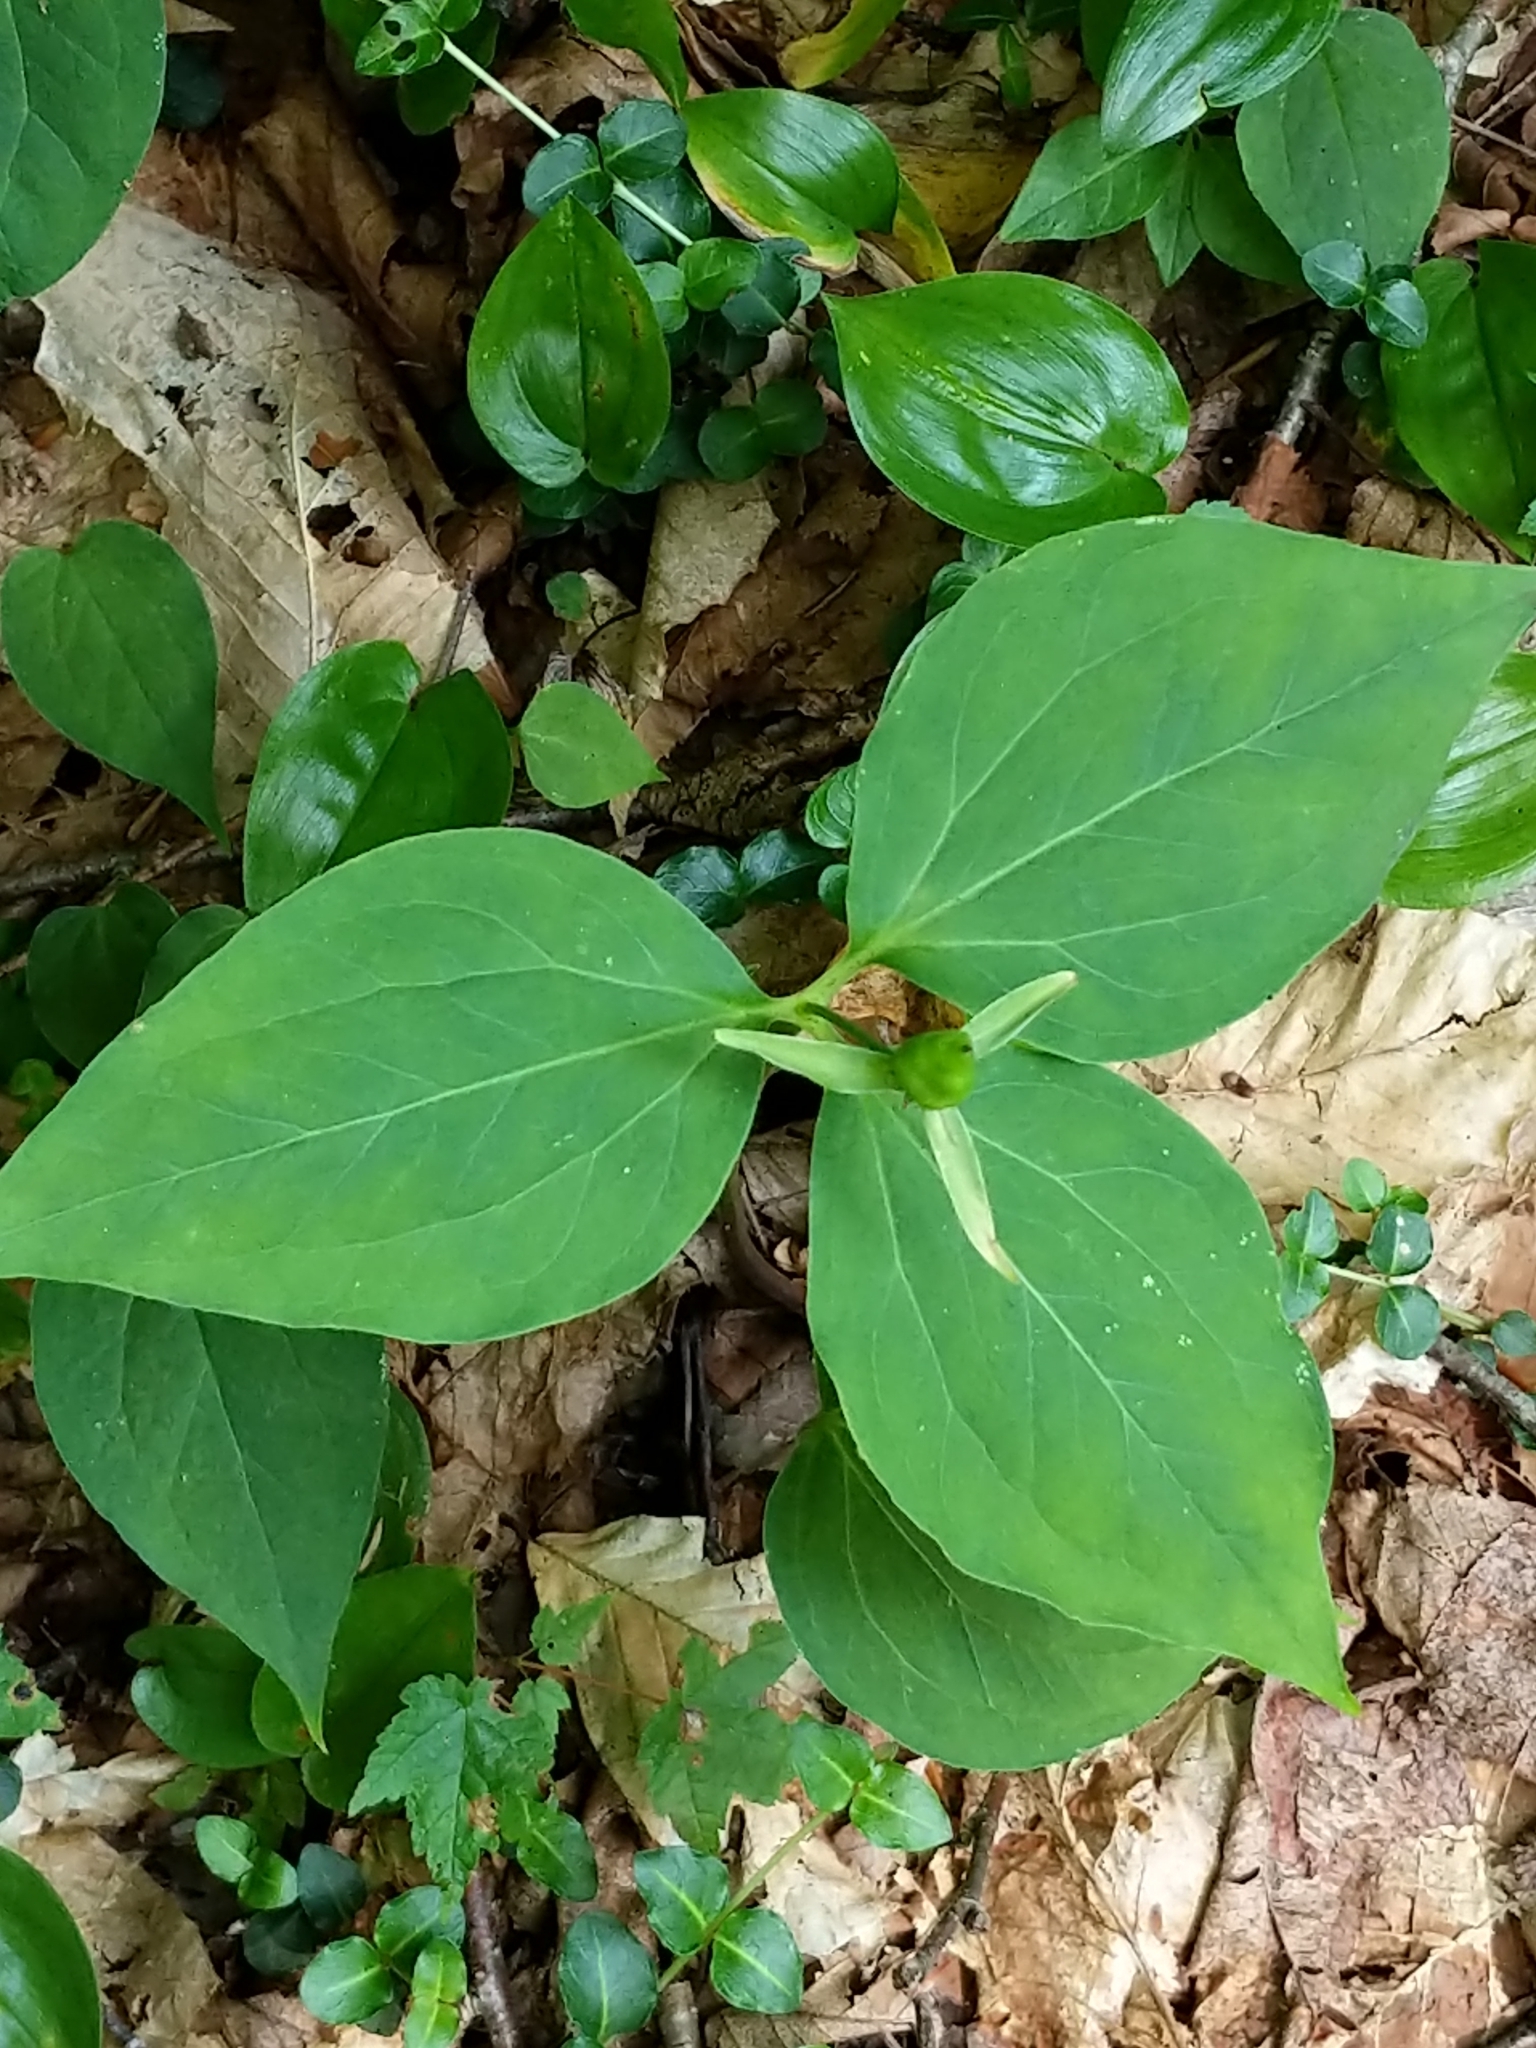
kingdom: Plantae
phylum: Tracheophyta
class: Liliopsida
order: Liliales
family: Melanthiaceae
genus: Trillium
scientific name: Trillium undulatum
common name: Paint trillium
